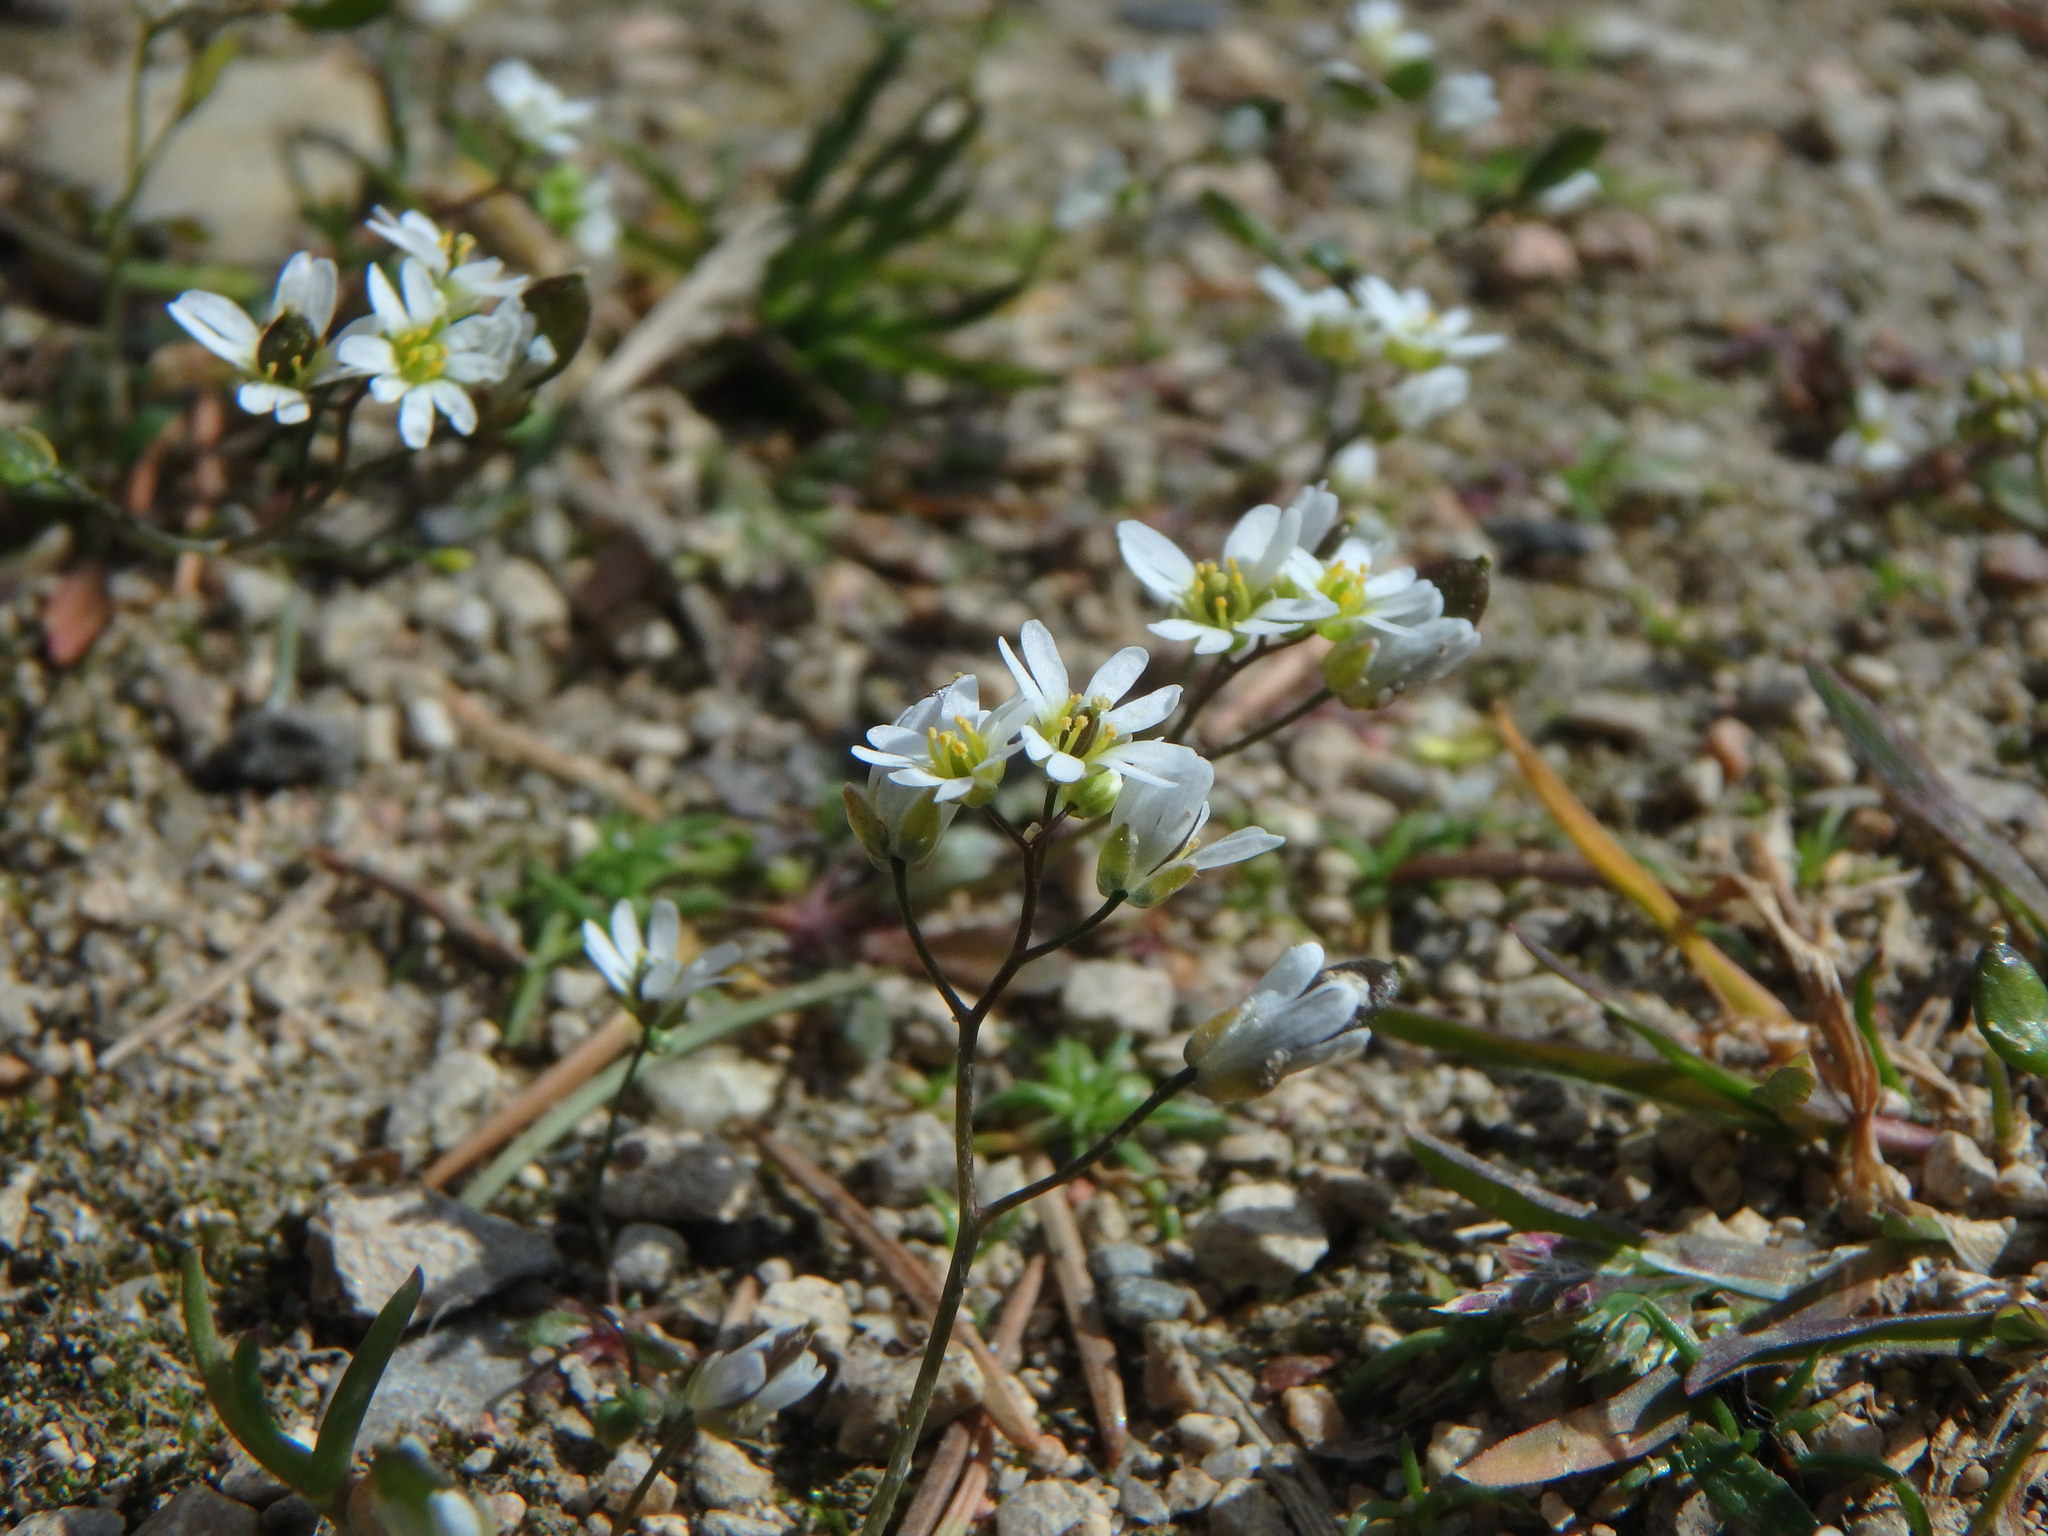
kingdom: Plantae
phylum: Tracheophyta
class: Magnoliopsida
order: Brassicales
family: Brassicaceae
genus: Draba
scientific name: Draba verna
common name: Spring draba
